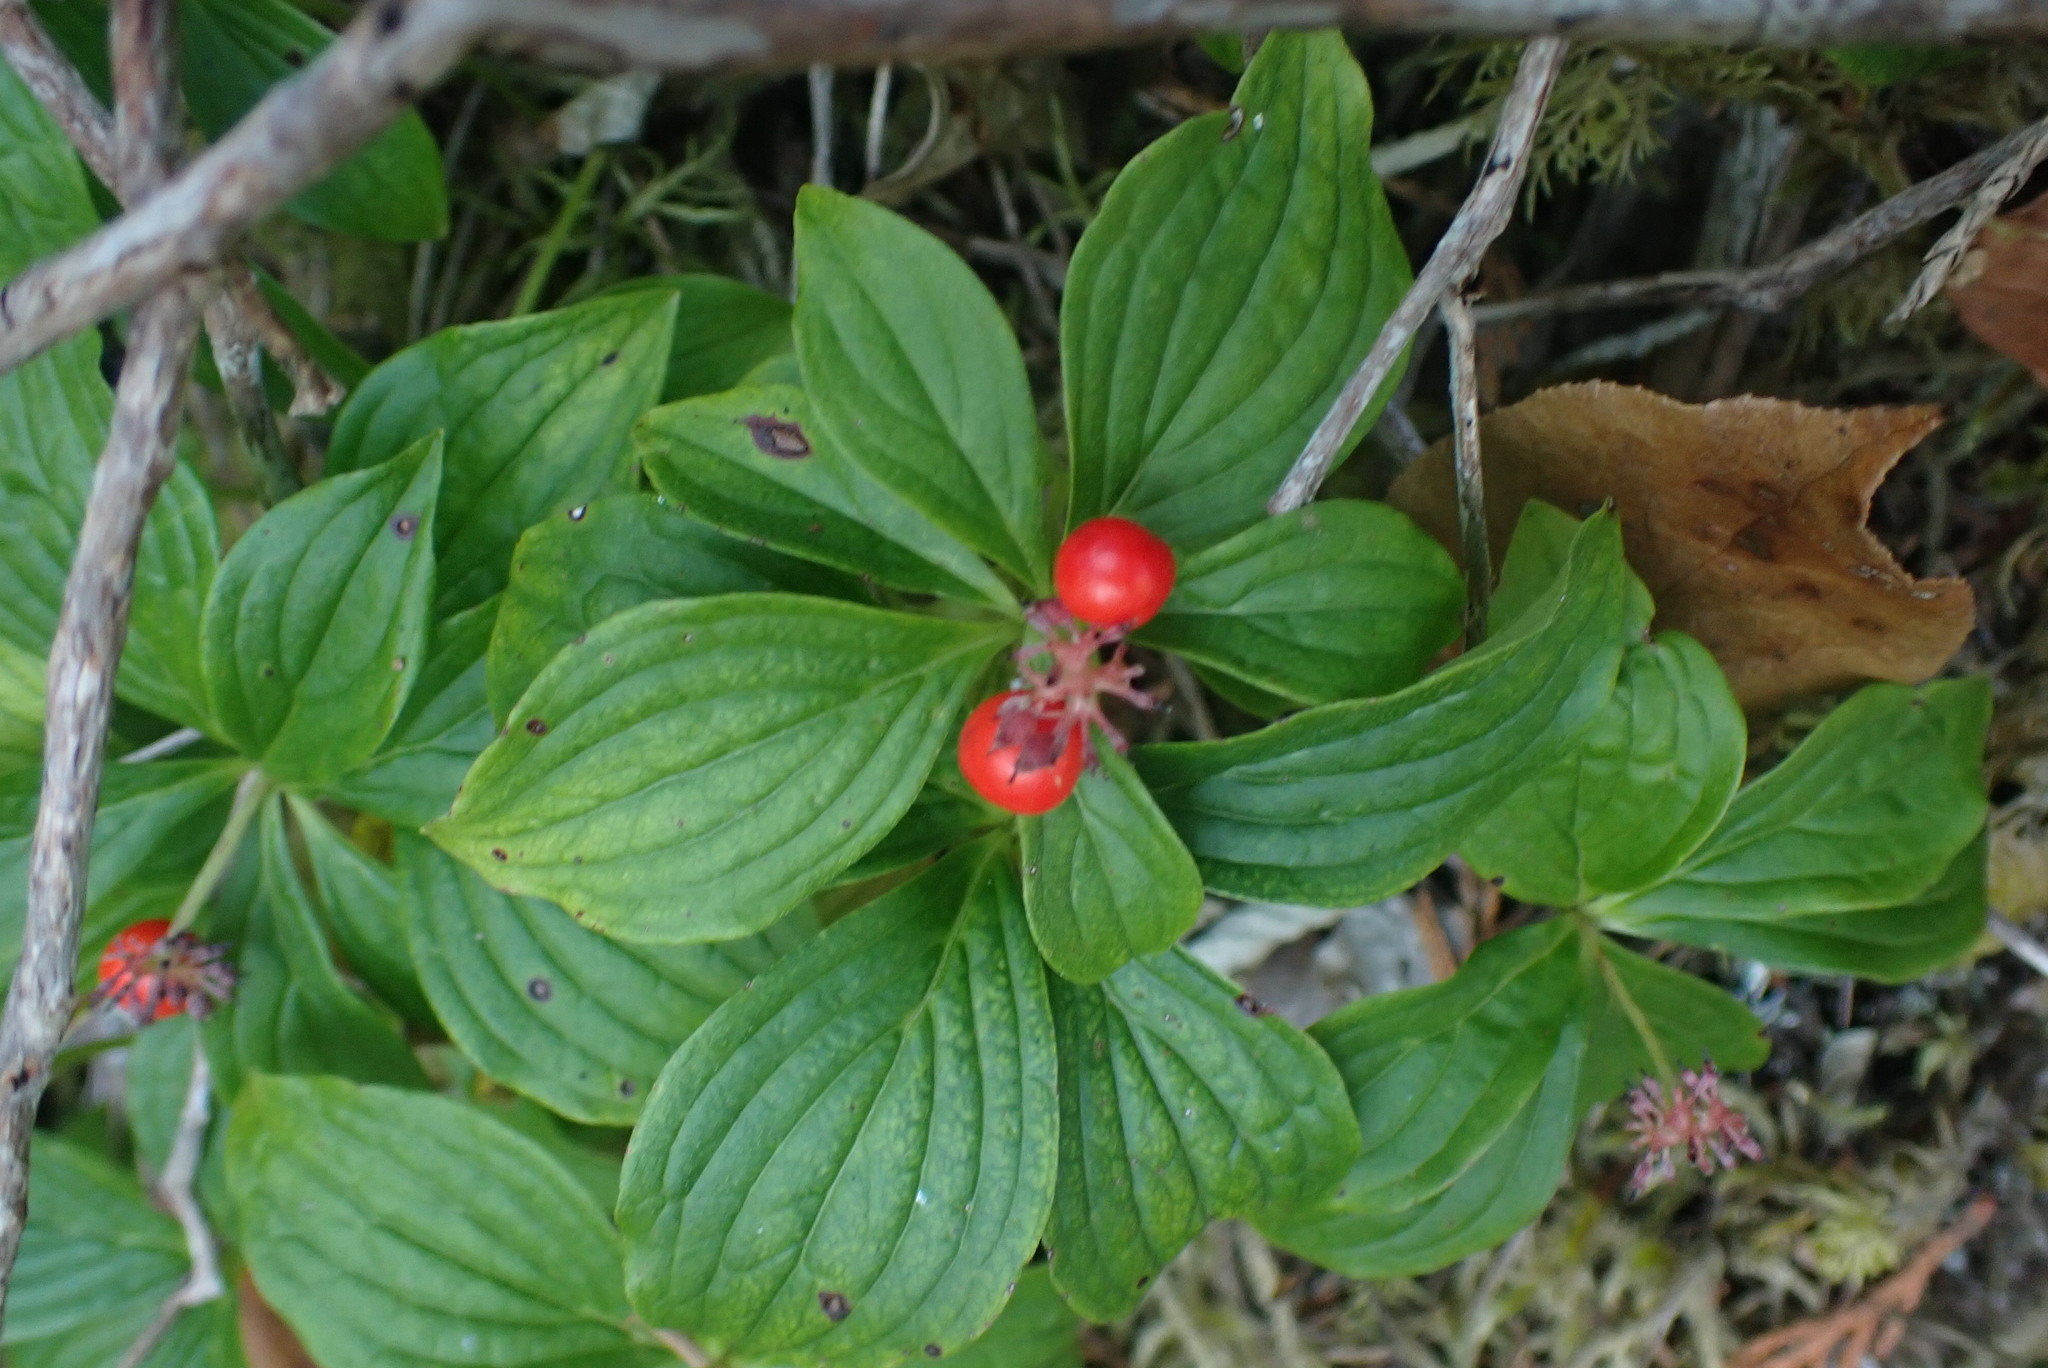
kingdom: Plantae
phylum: Tracheophyta
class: Magnoliopsida
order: Cornales
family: Cornaceae
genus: Cornus
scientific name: Cornus unalaschkensis
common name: Alaska bunchberry
